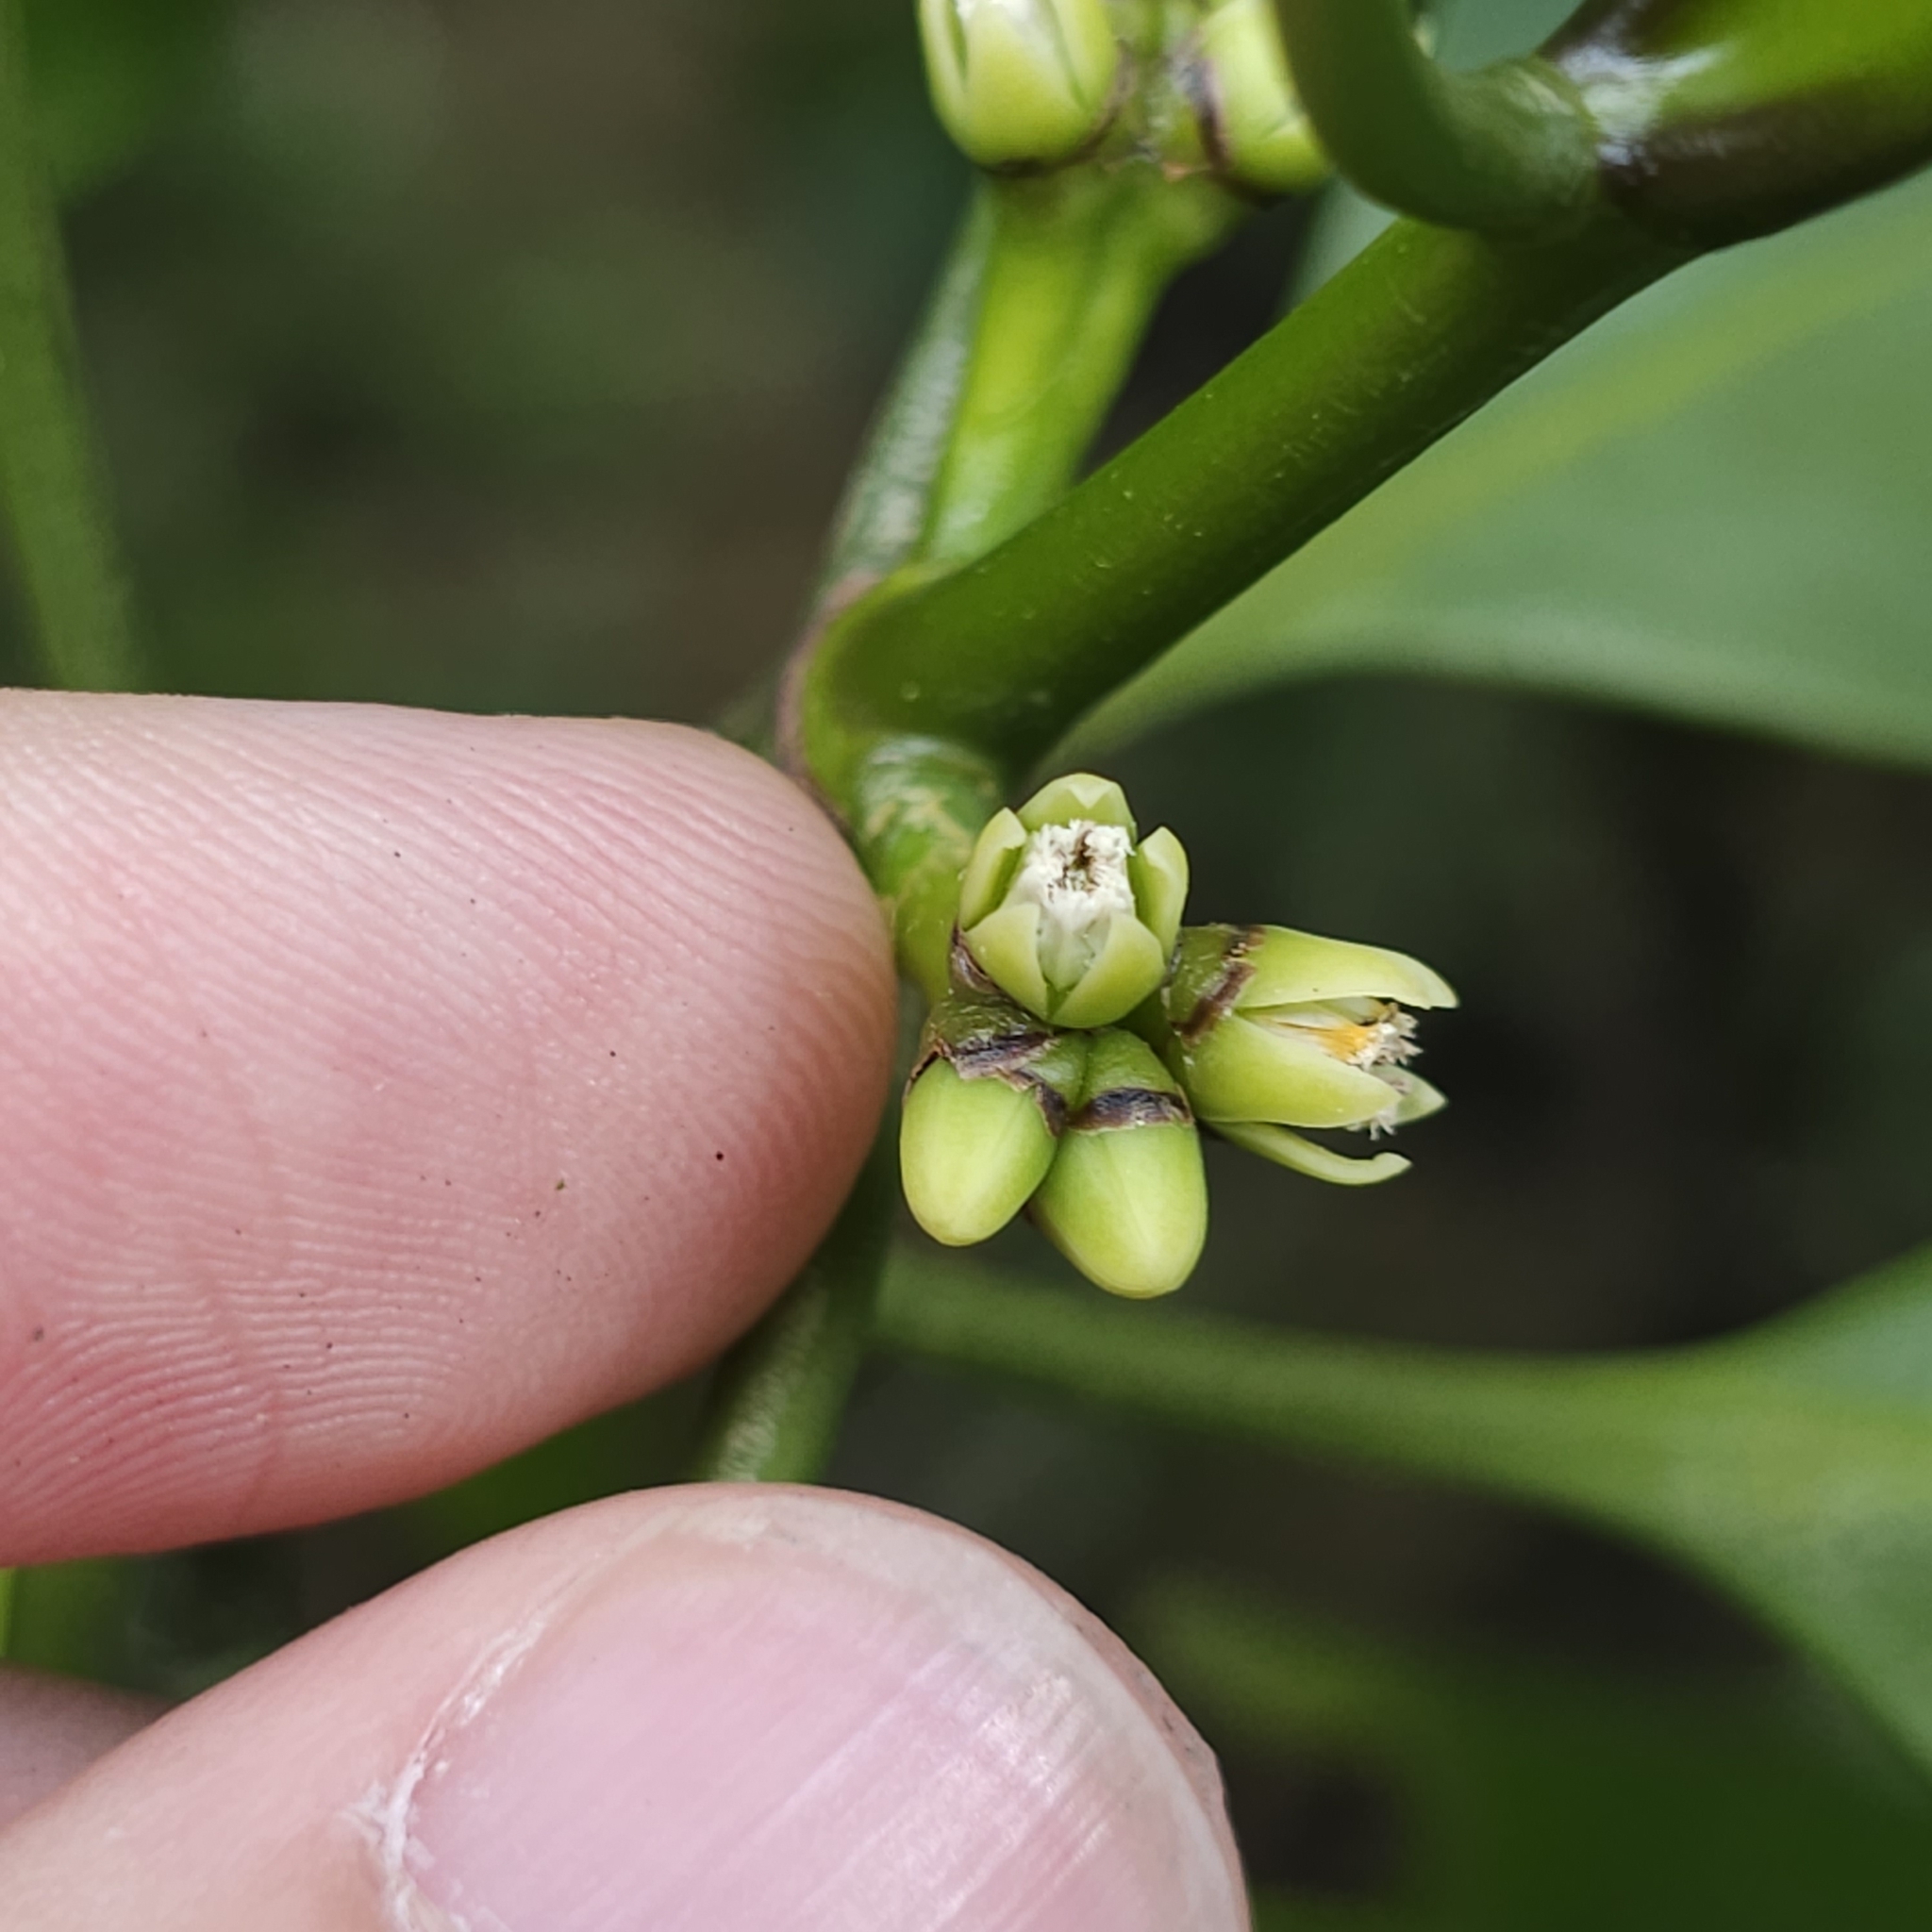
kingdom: Plantae
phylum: Tracheophyta
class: Magnoliopsida
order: Malpighiales
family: Rhizophoraceae
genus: Ceriops
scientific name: Ceriops zippeliana
